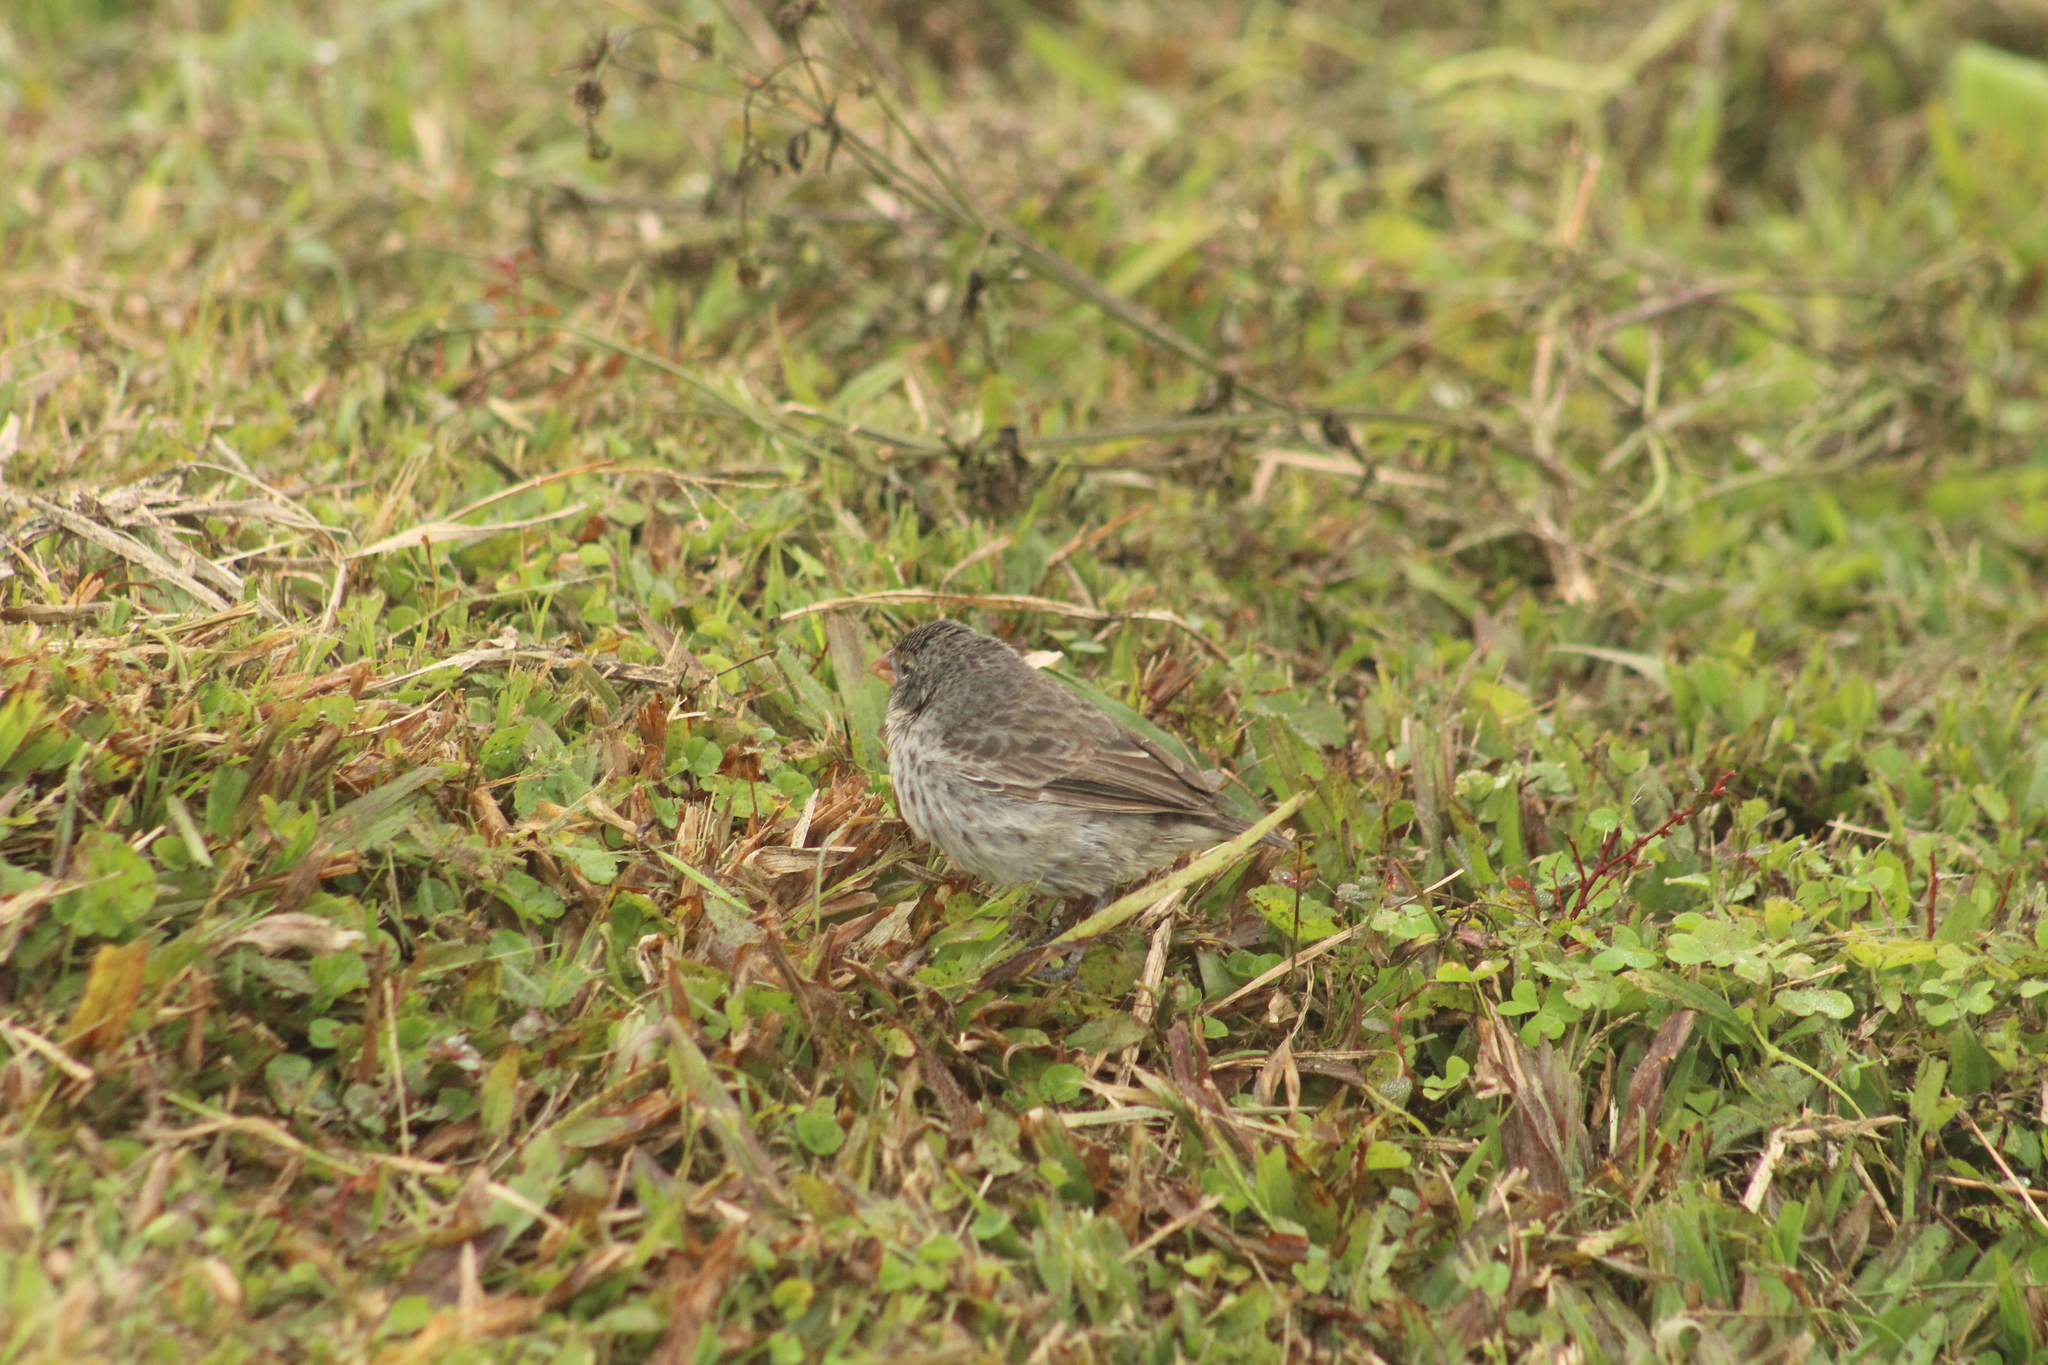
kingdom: Animalia
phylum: Chordata
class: Aves
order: Passeriformes
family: Thraupidae
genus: Geospiza
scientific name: Geospiza fuliginosa
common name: Small ground finch
